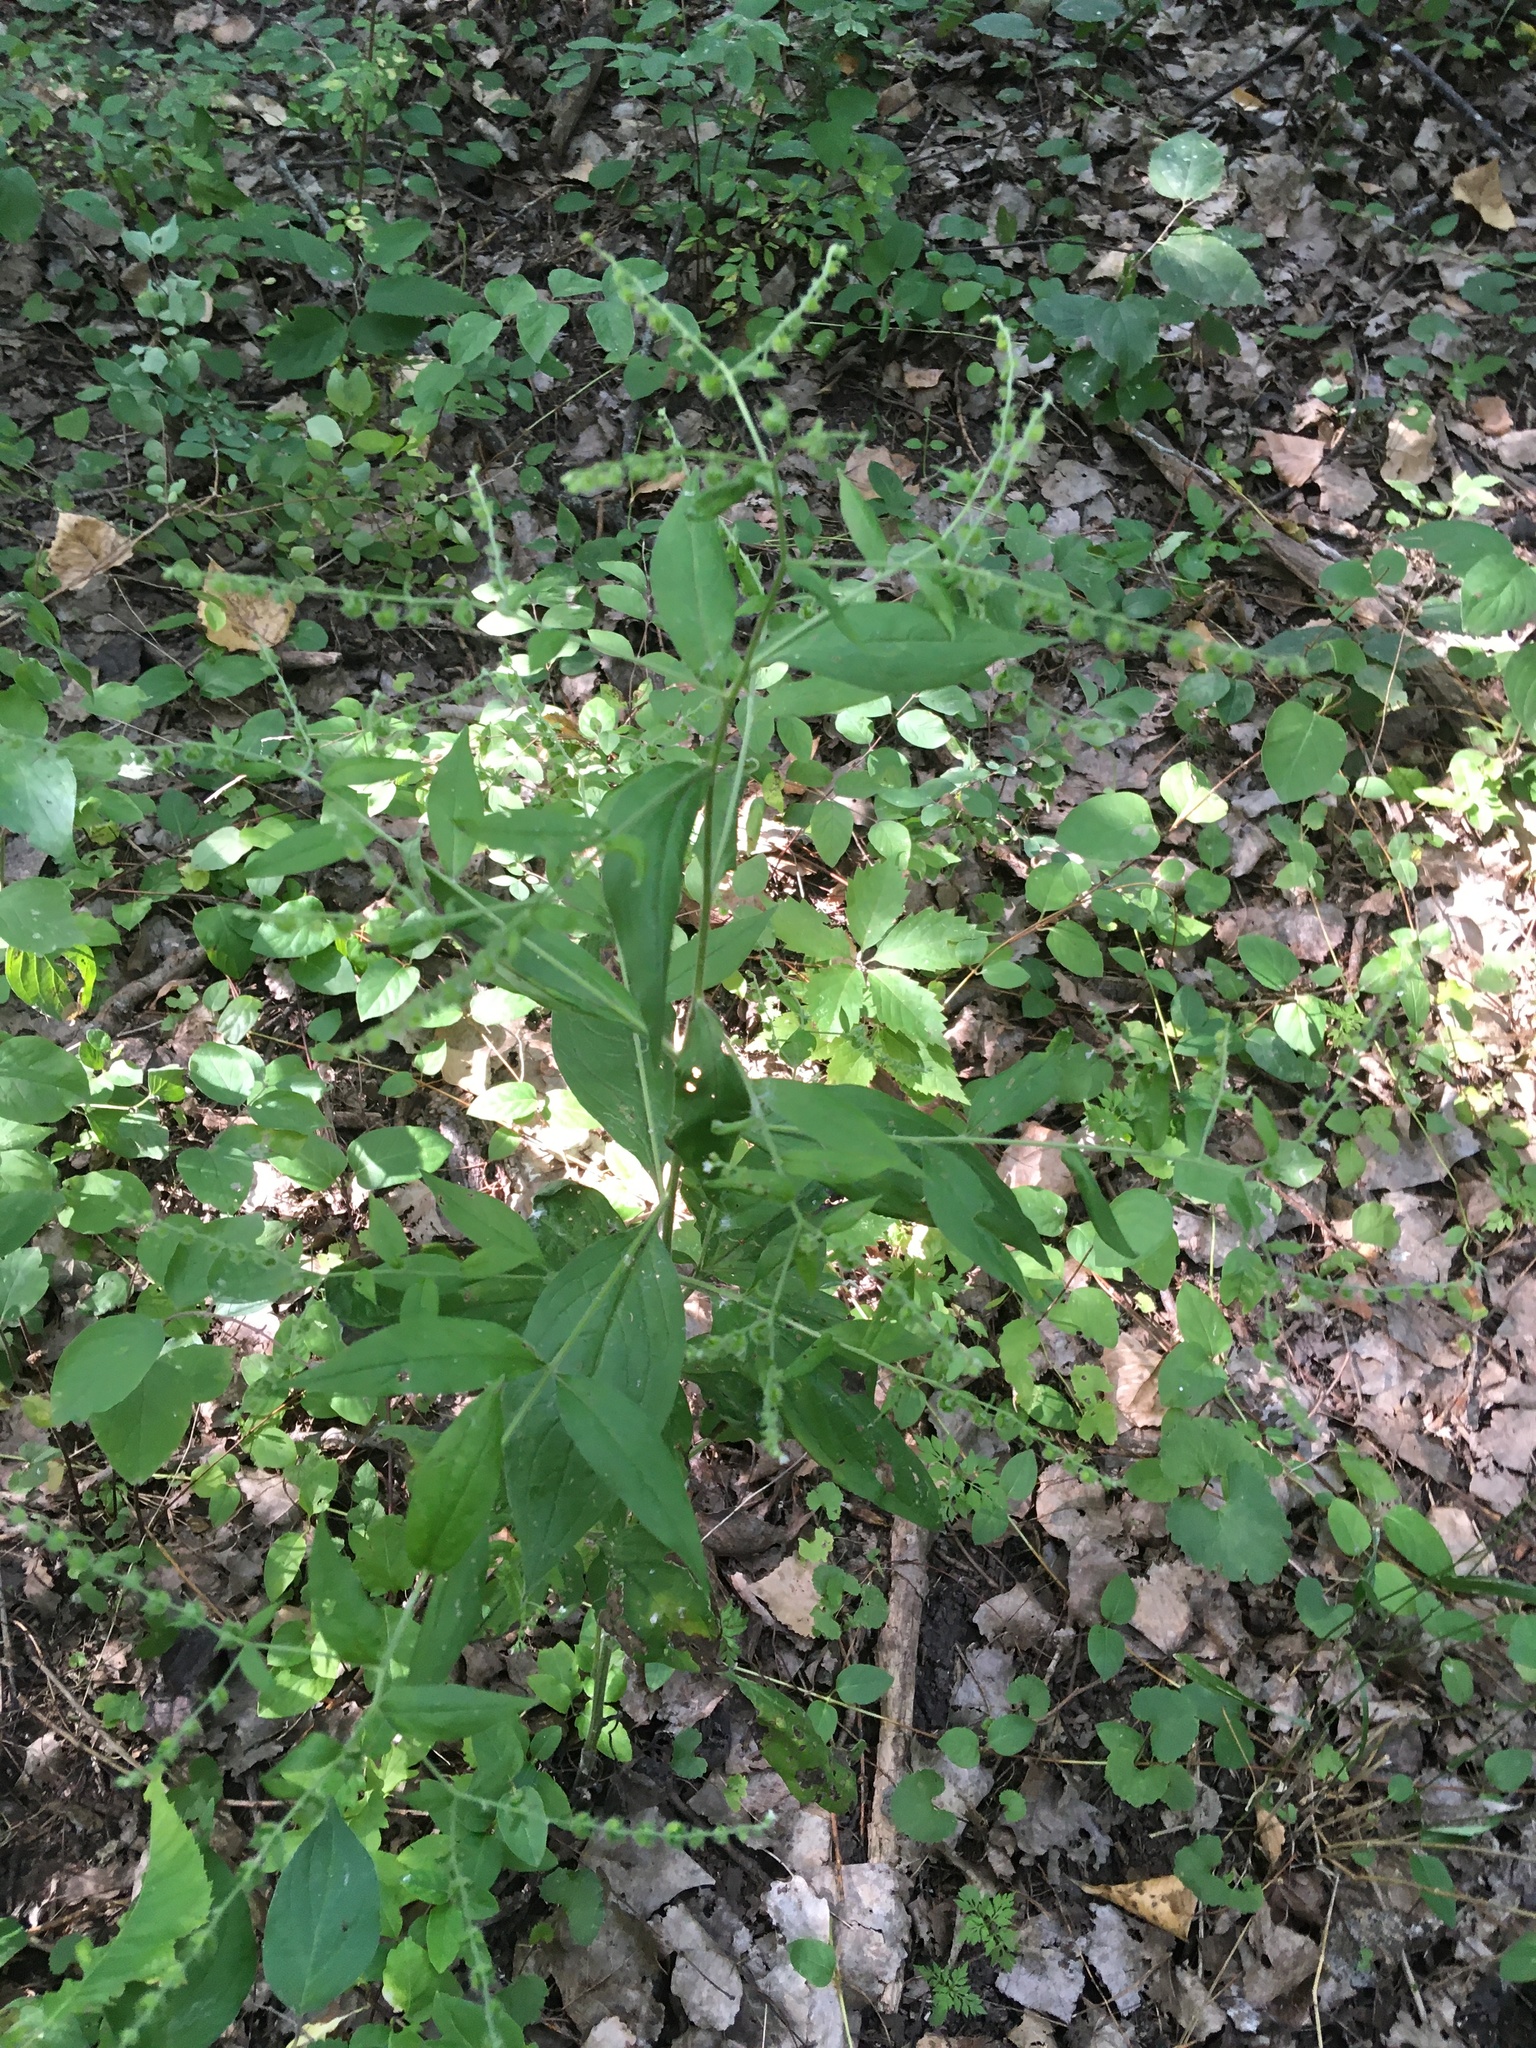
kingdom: Plantae
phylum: Tracheophyta
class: Magnoliopsida
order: Boraginales
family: Boraginaceae
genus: Hackelia
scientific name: Hackelia virginiana
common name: Beggar's-lice
